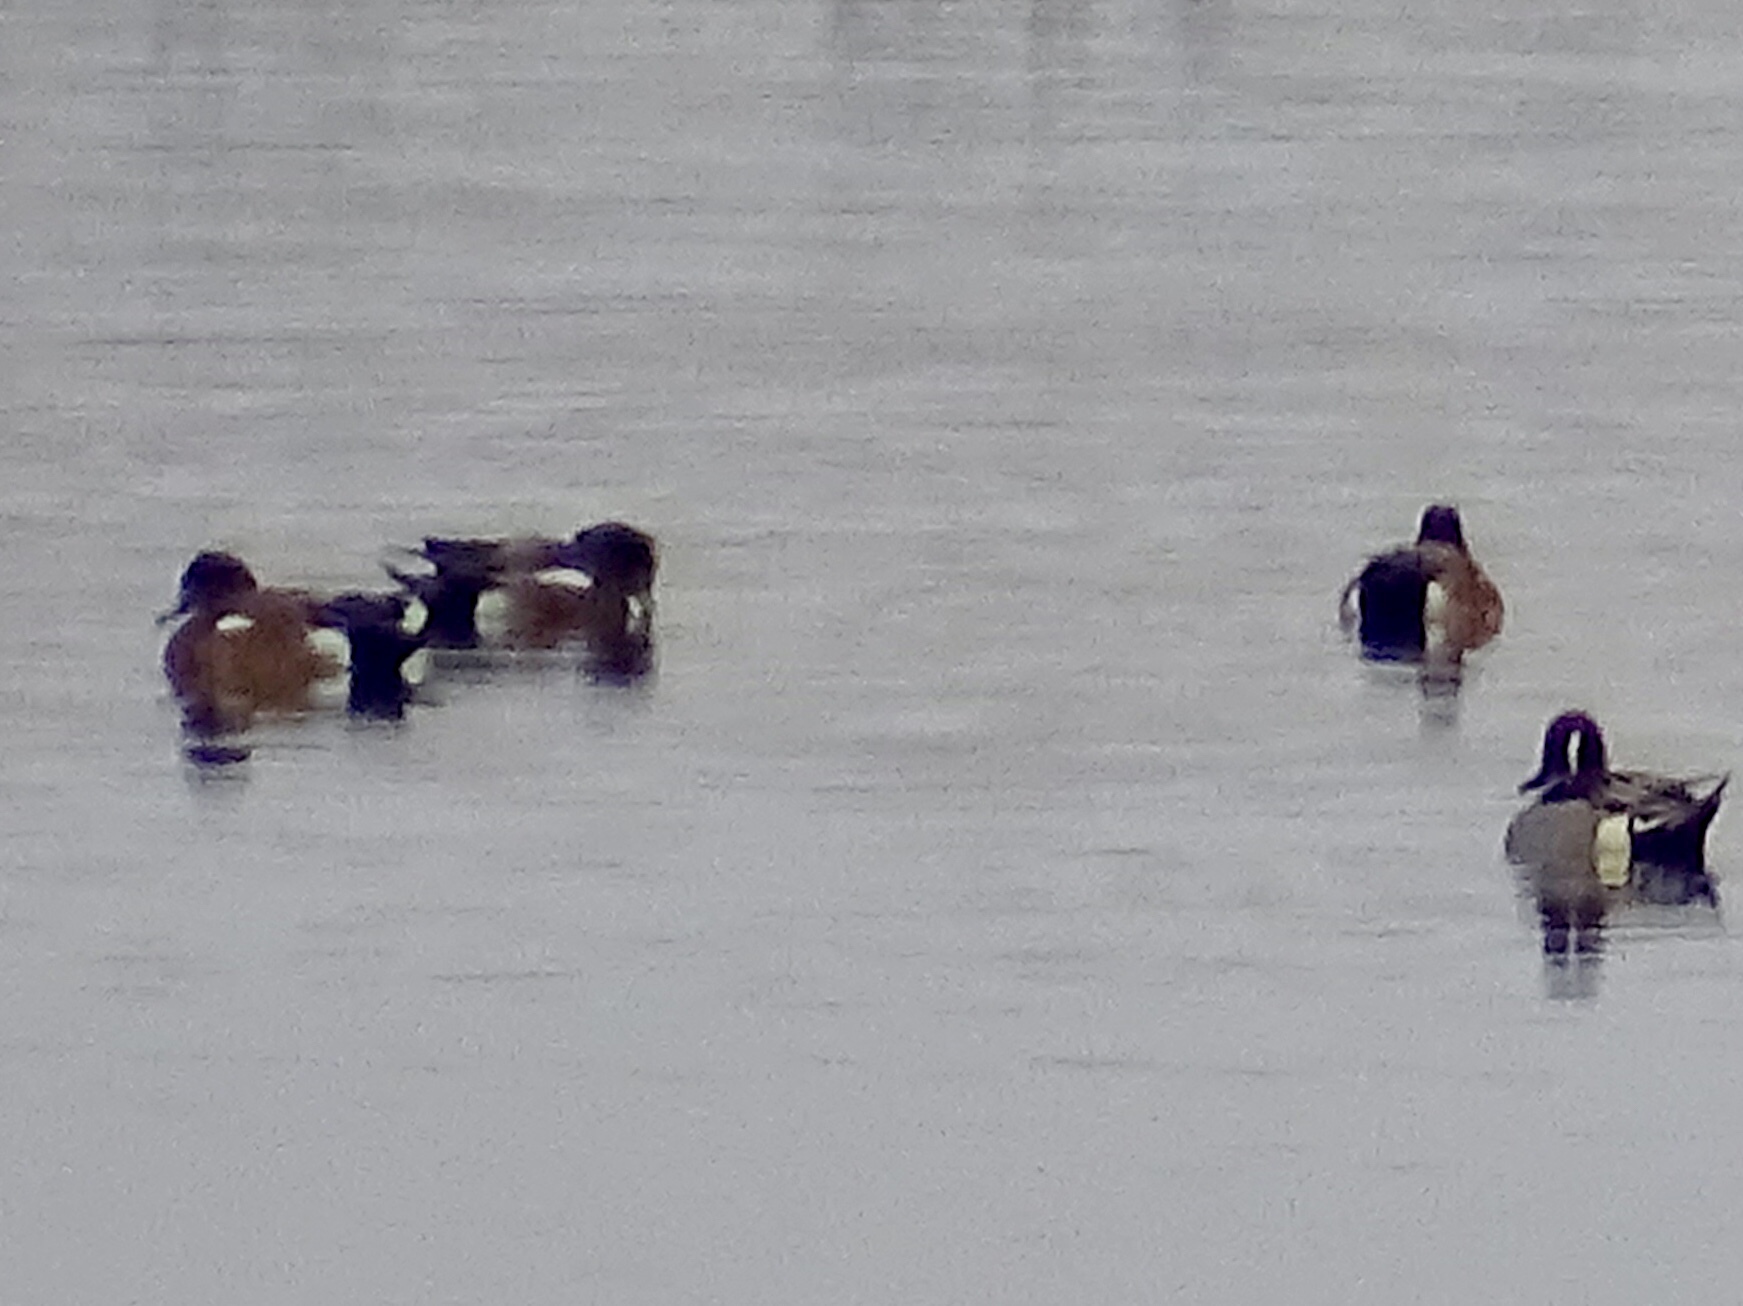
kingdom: Animalia
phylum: Chordata
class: Aves
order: Anseriformes
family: Anatidae
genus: Mareca
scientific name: Mareca americana
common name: American wigeon
